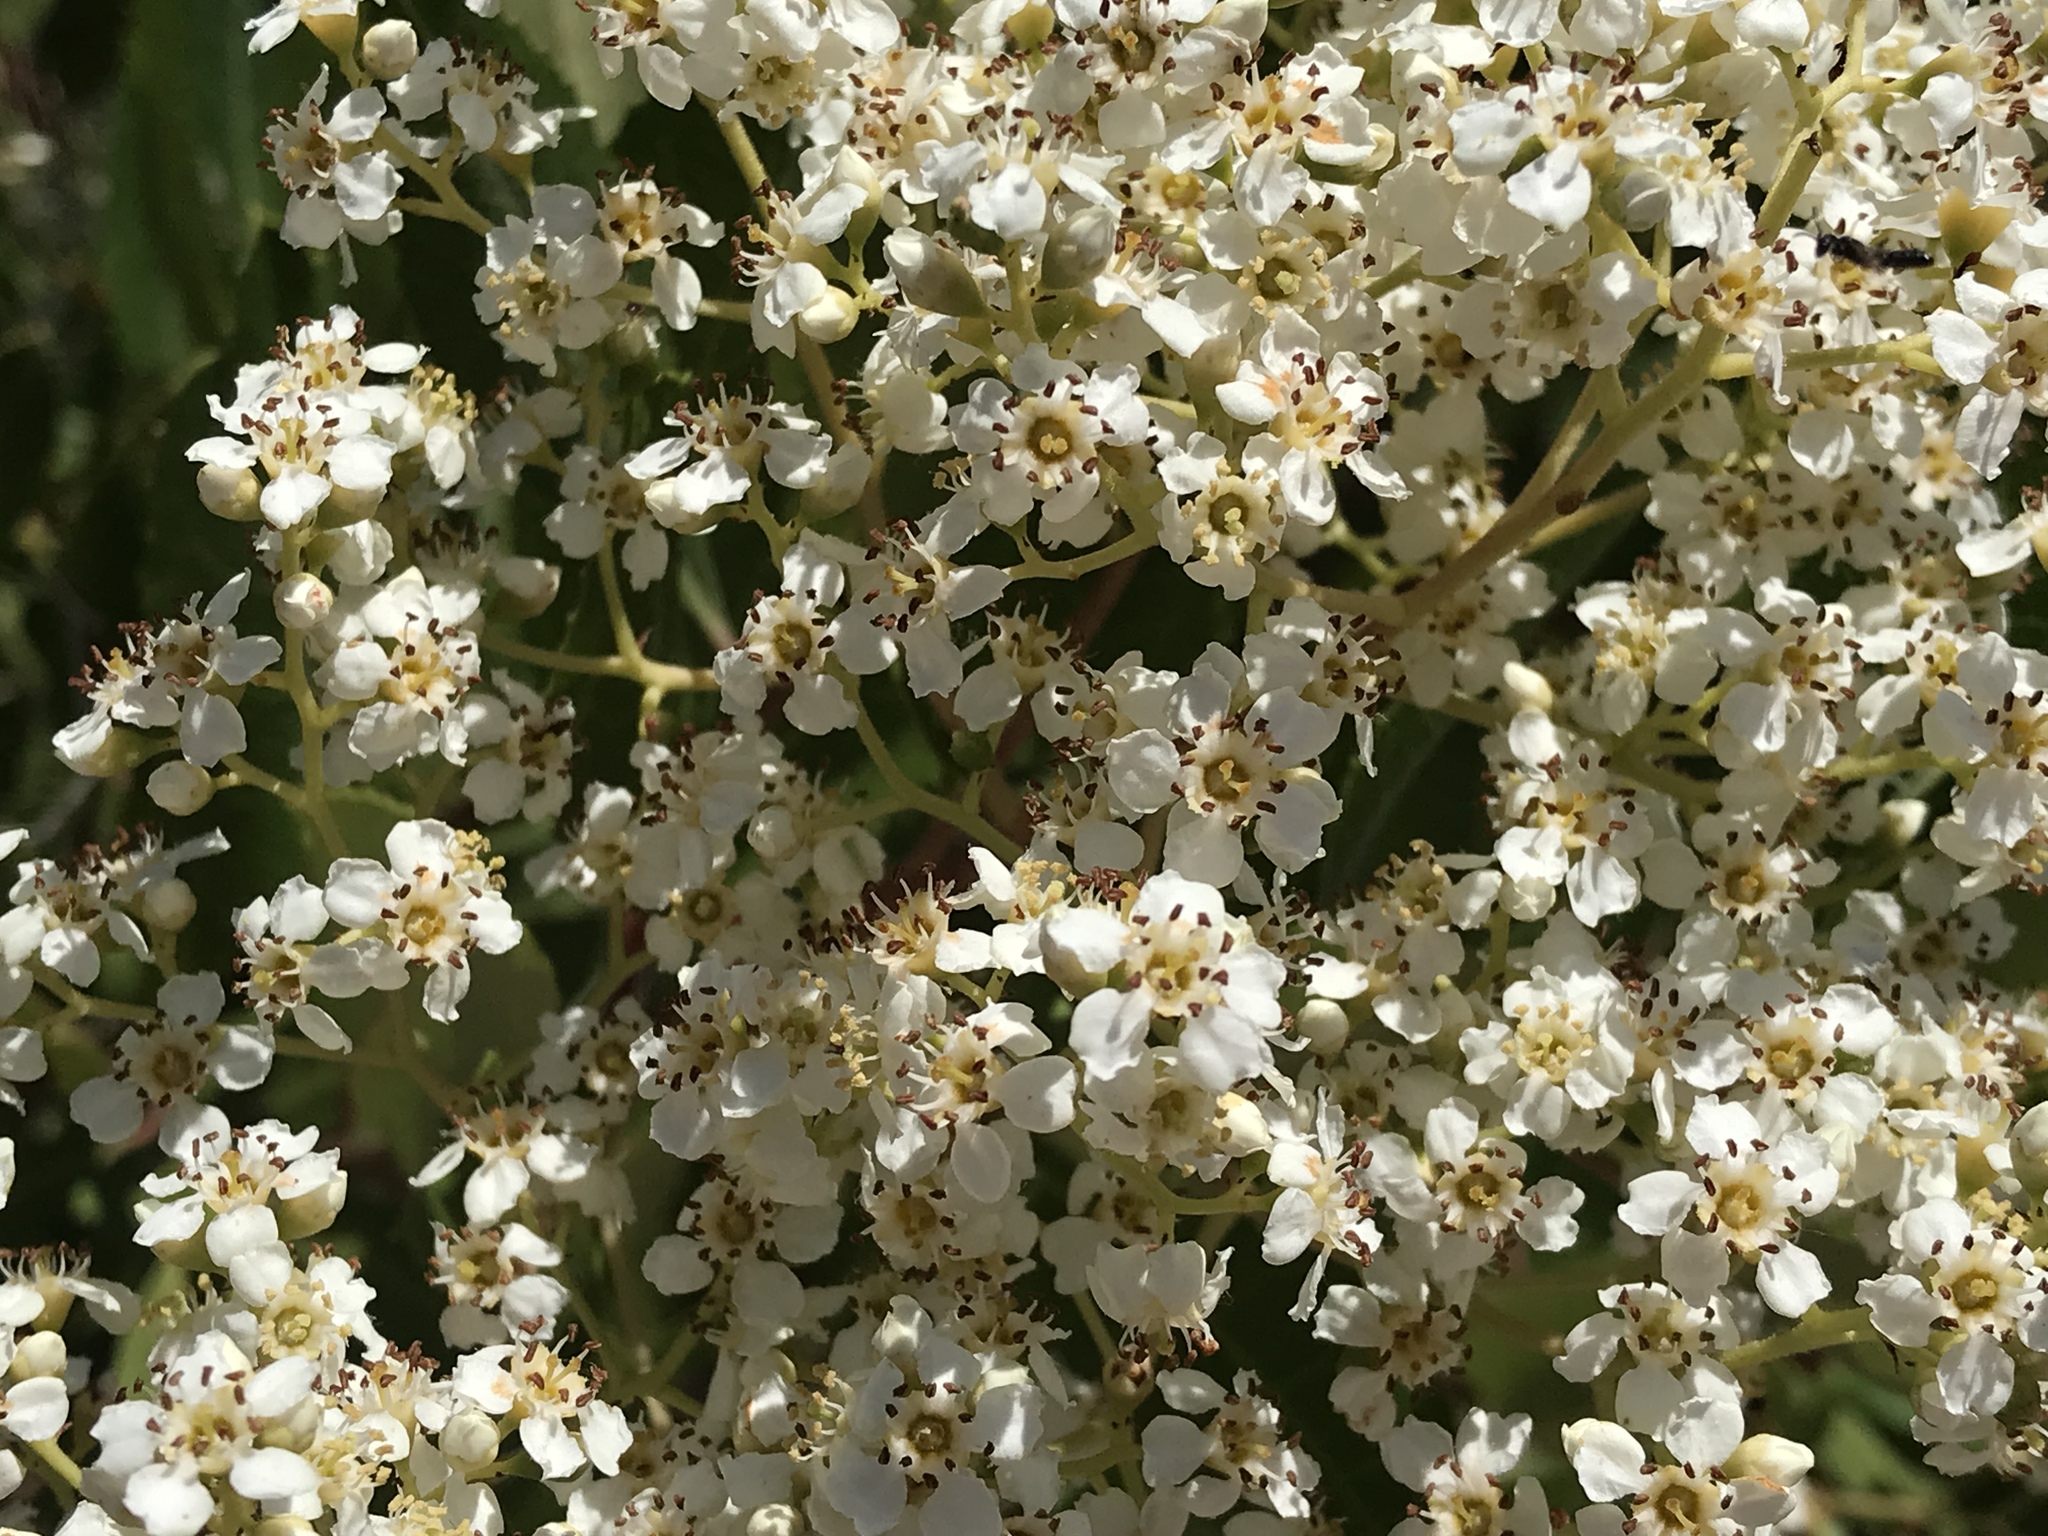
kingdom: Plantae
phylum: Tracheophyta
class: Magnoliopsida
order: Rosales
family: Rosaceae
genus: Heteromeles
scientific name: Heteromeles arbutifolia
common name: California-holly
